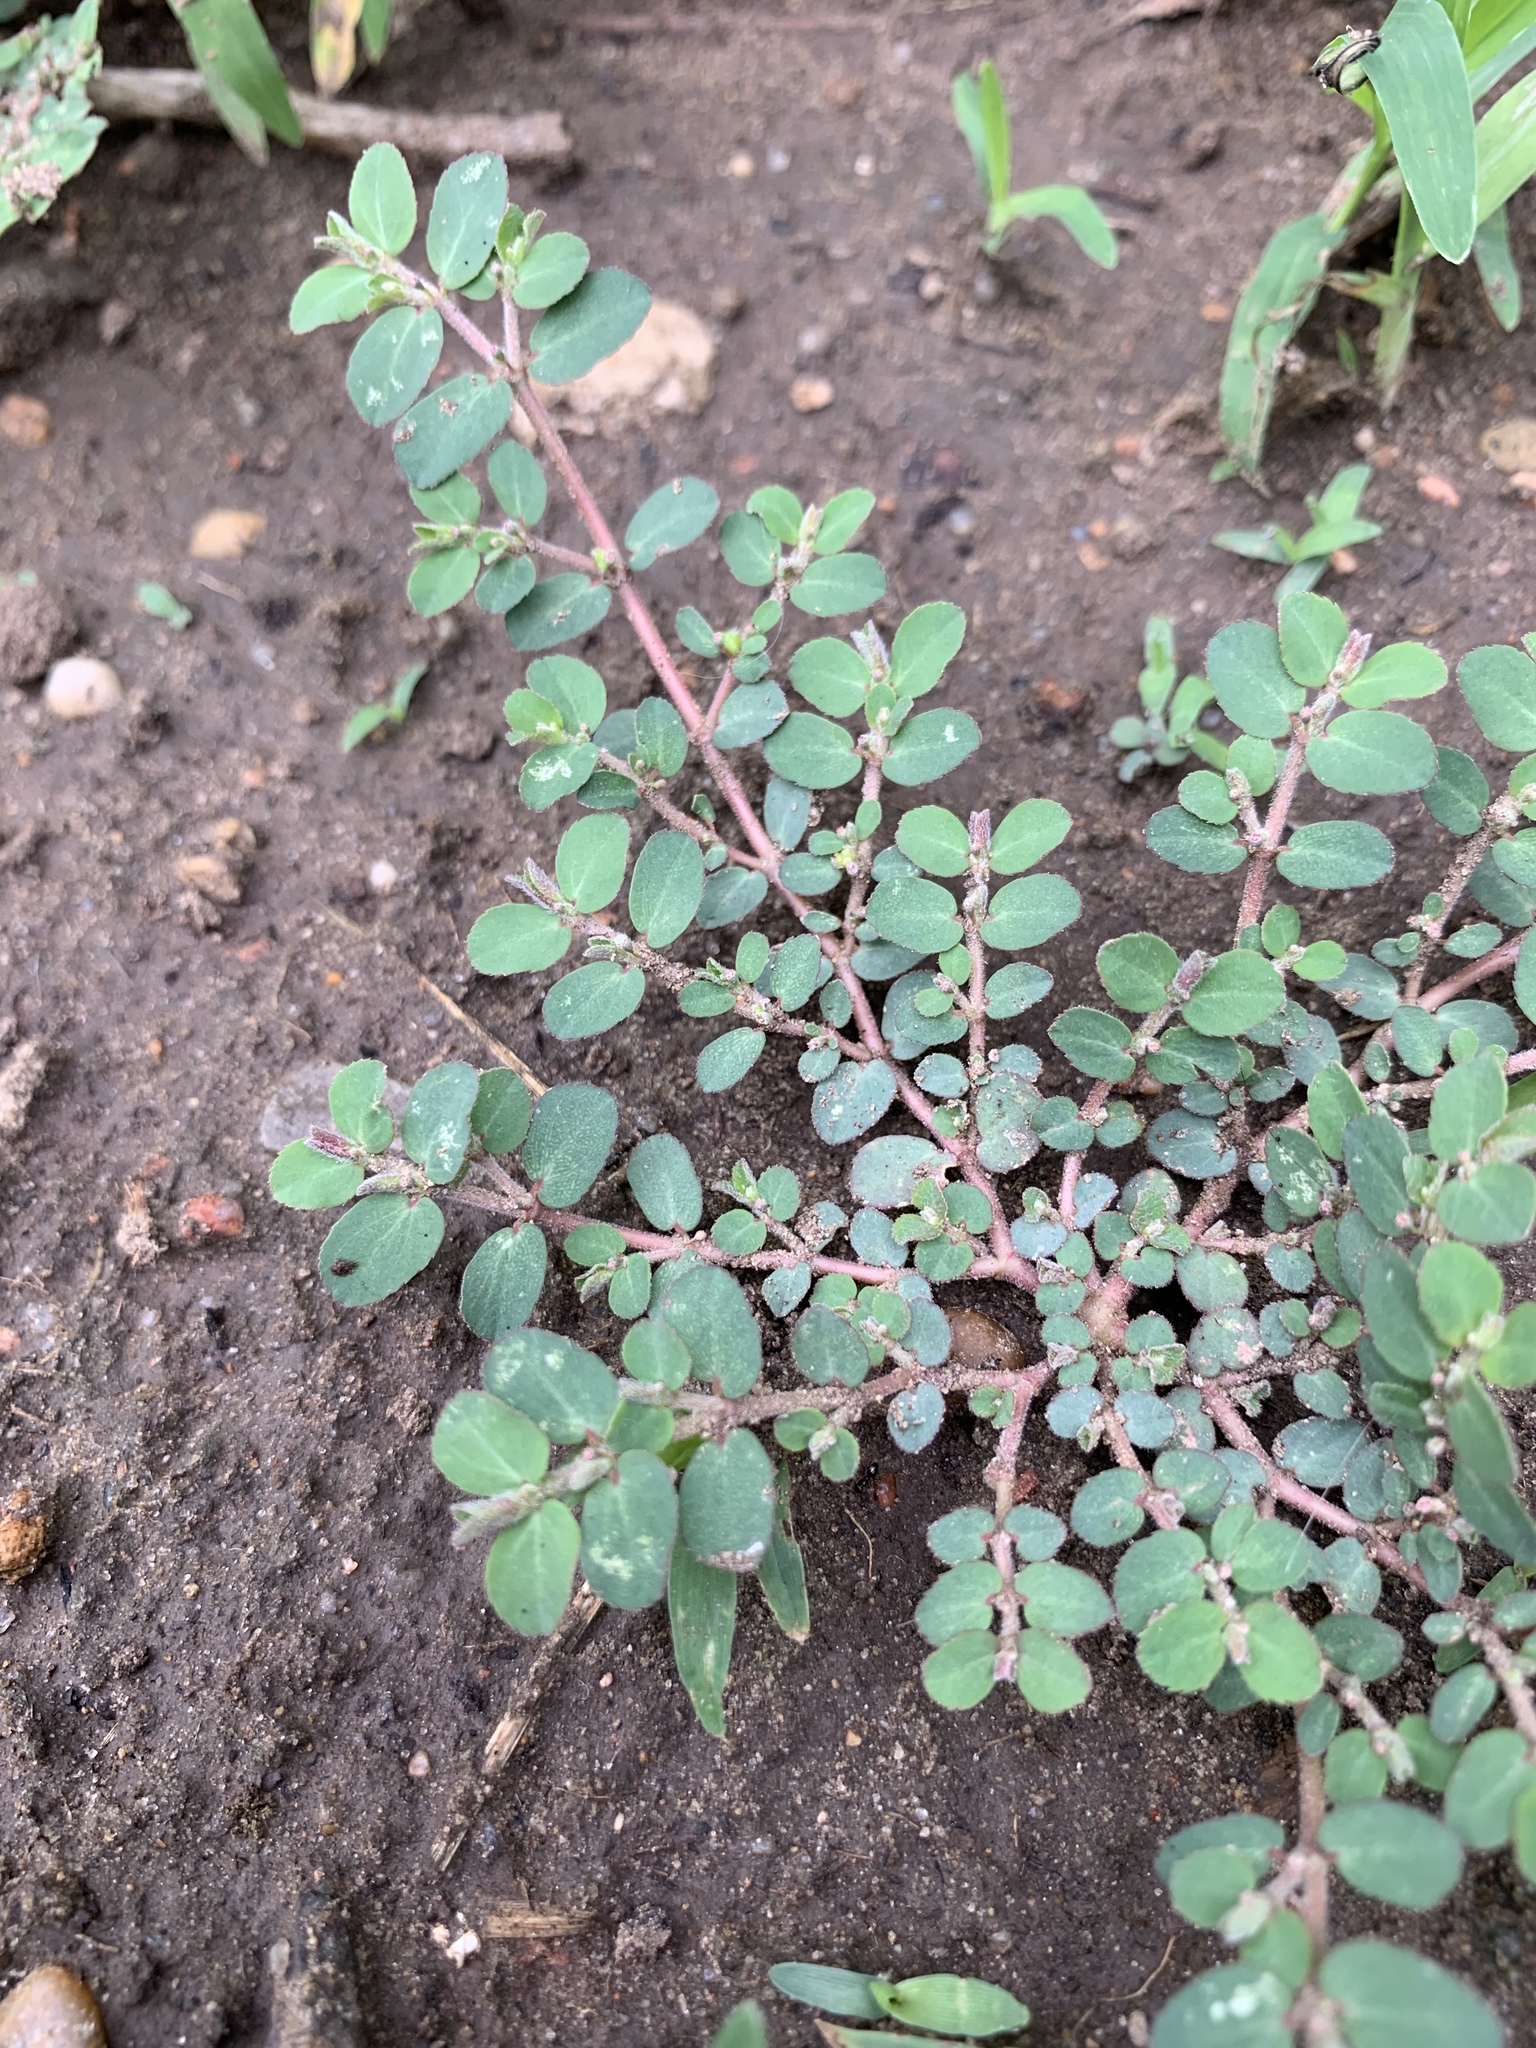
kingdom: Plantae
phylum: Tracheophyta
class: Magnoliopsida
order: Malpighiales
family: Euphorbiaceae
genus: Euphorbia
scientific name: Euphorbia prostrata
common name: Prostrate sandmat
